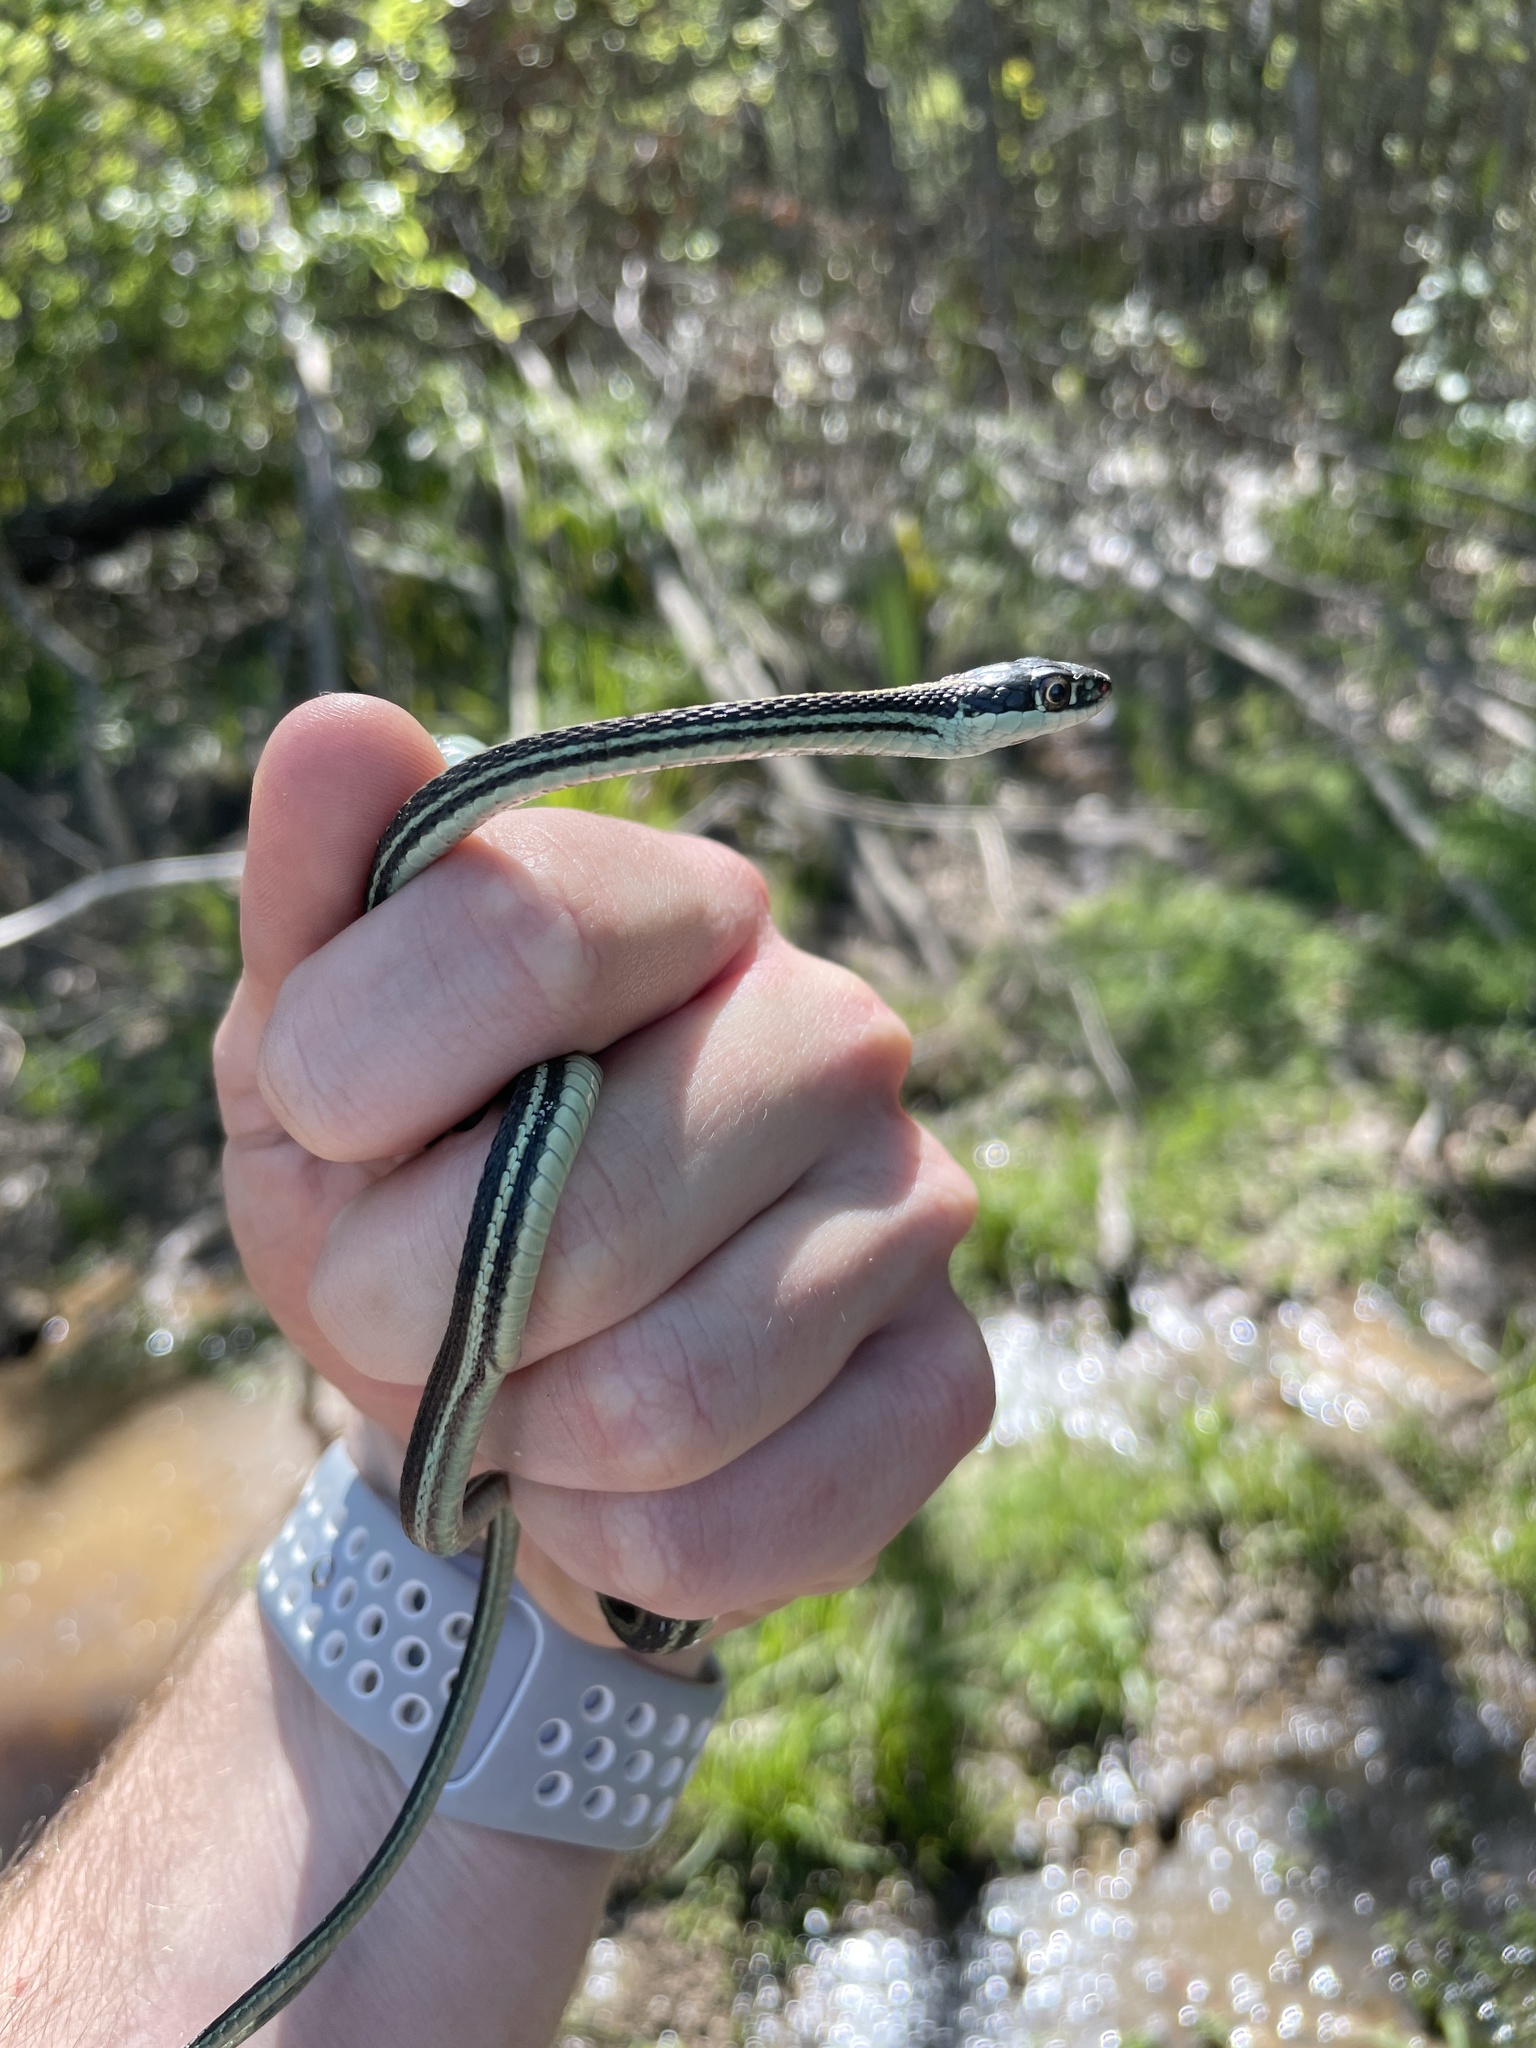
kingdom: Animalia
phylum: Chordata
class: Squamata
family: Colubridae
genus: Thamnophis
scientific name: Thamnophis proximus
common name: Western ribbon snake
